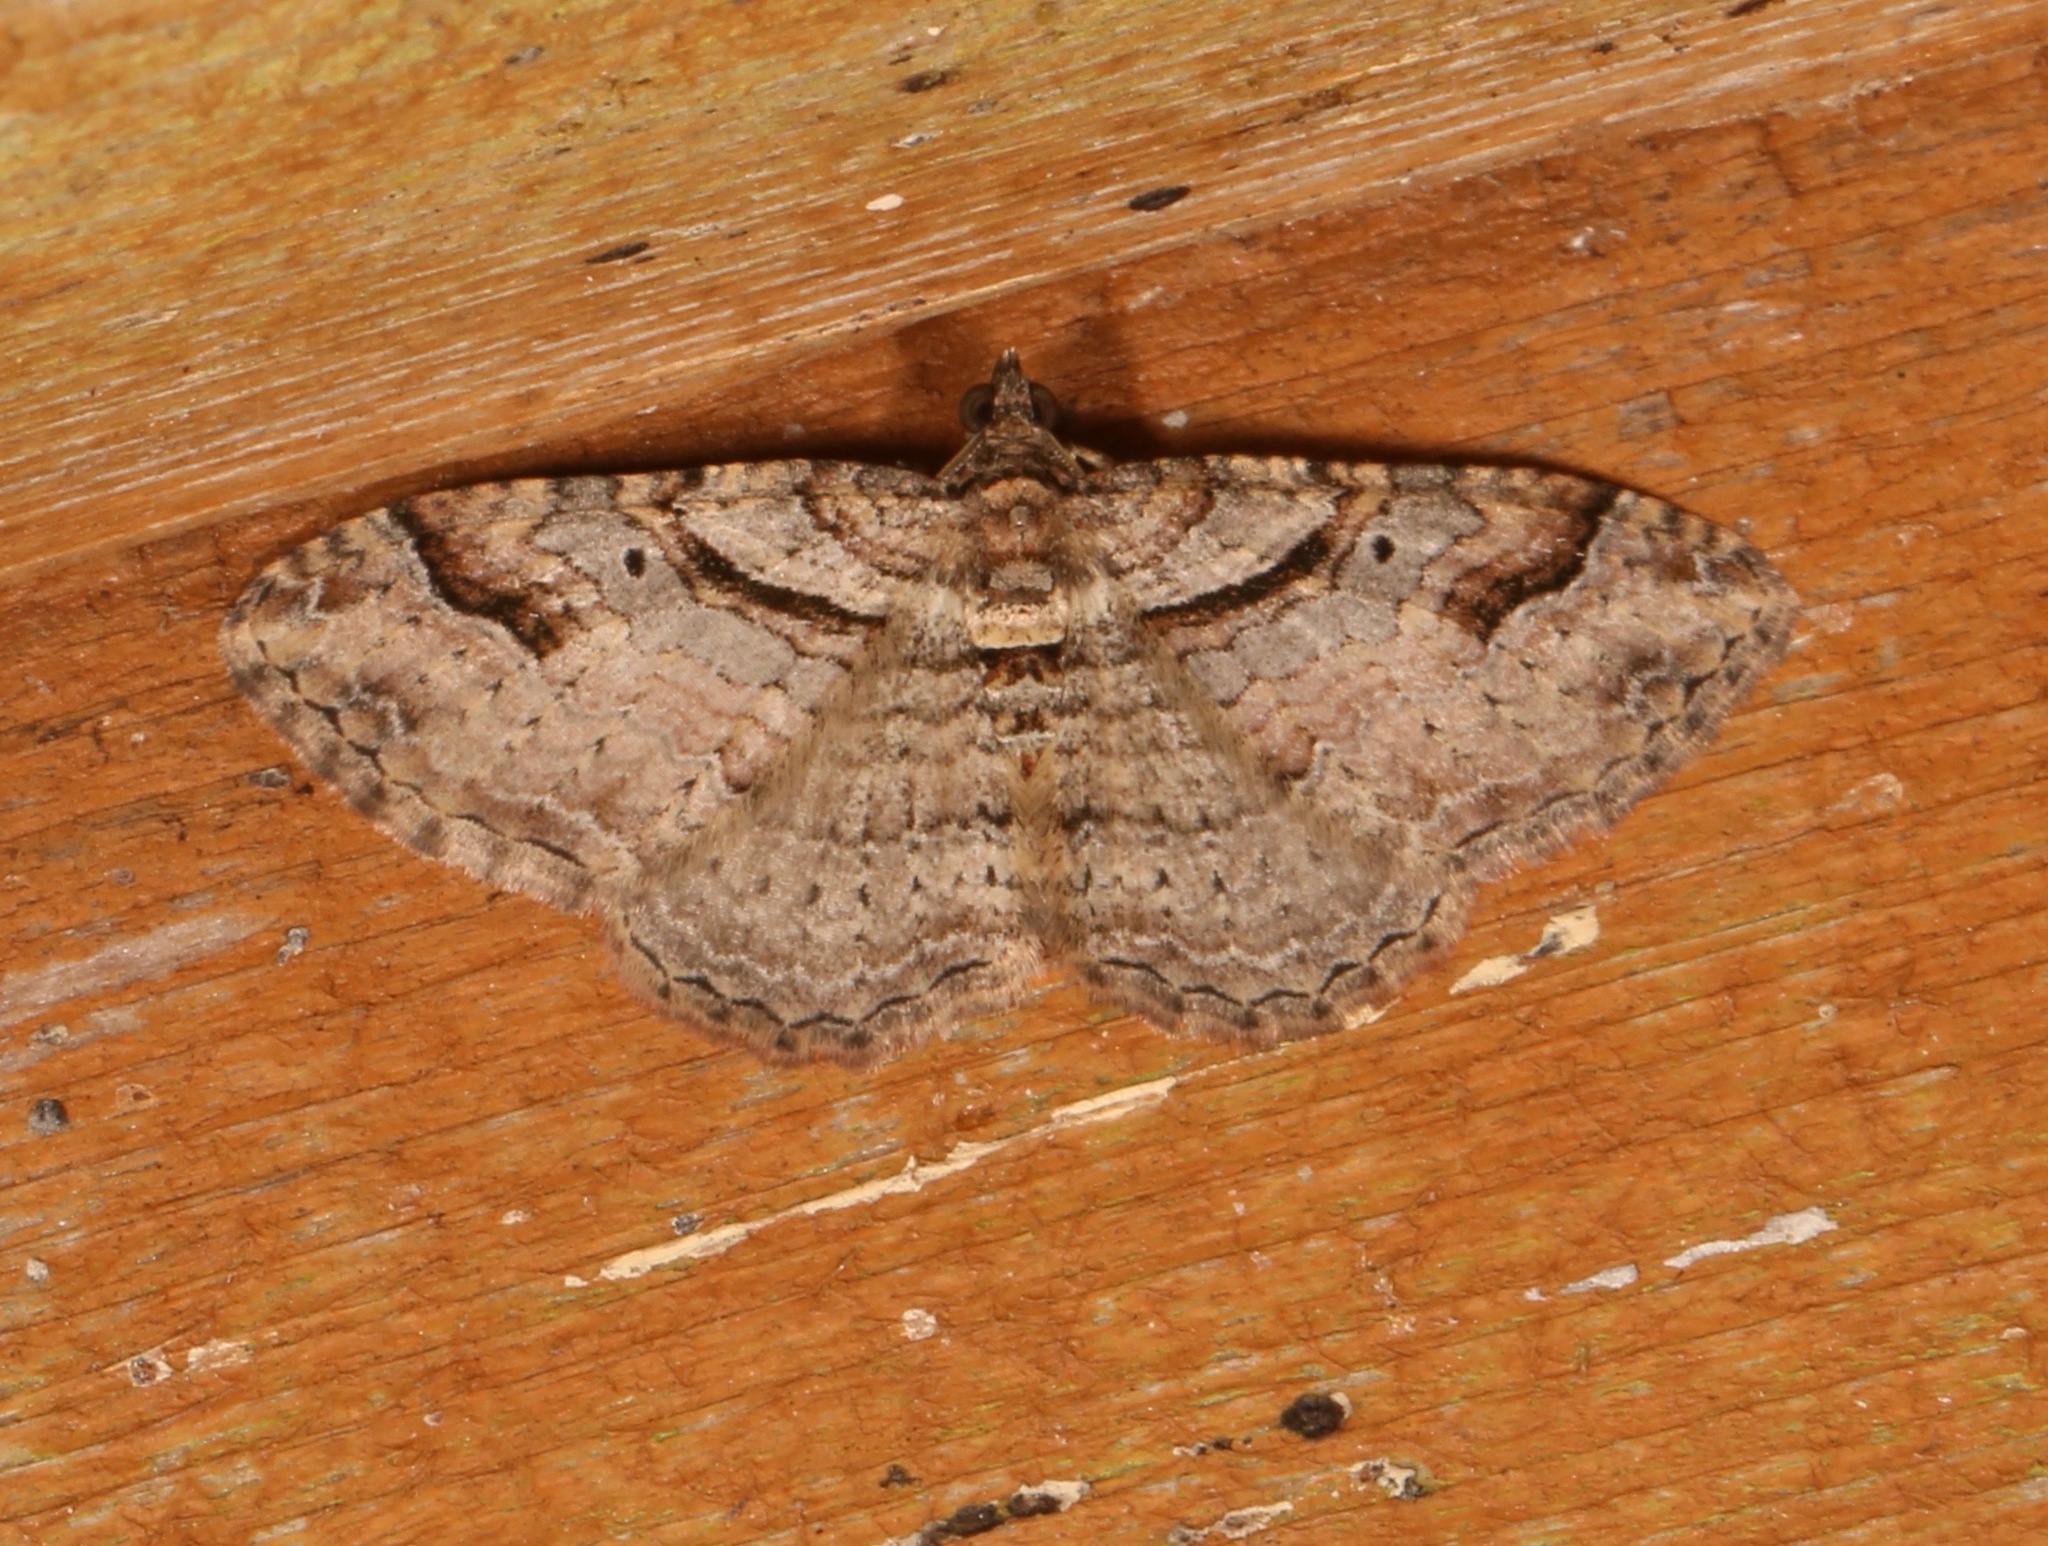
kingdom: Animalia
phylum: Arthropoda
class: Insecta
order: Lepidoptera
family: Geometridae
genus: Costaconvexa
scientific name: Costaconvexa centrostrigaria
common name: Bent-line carpet
